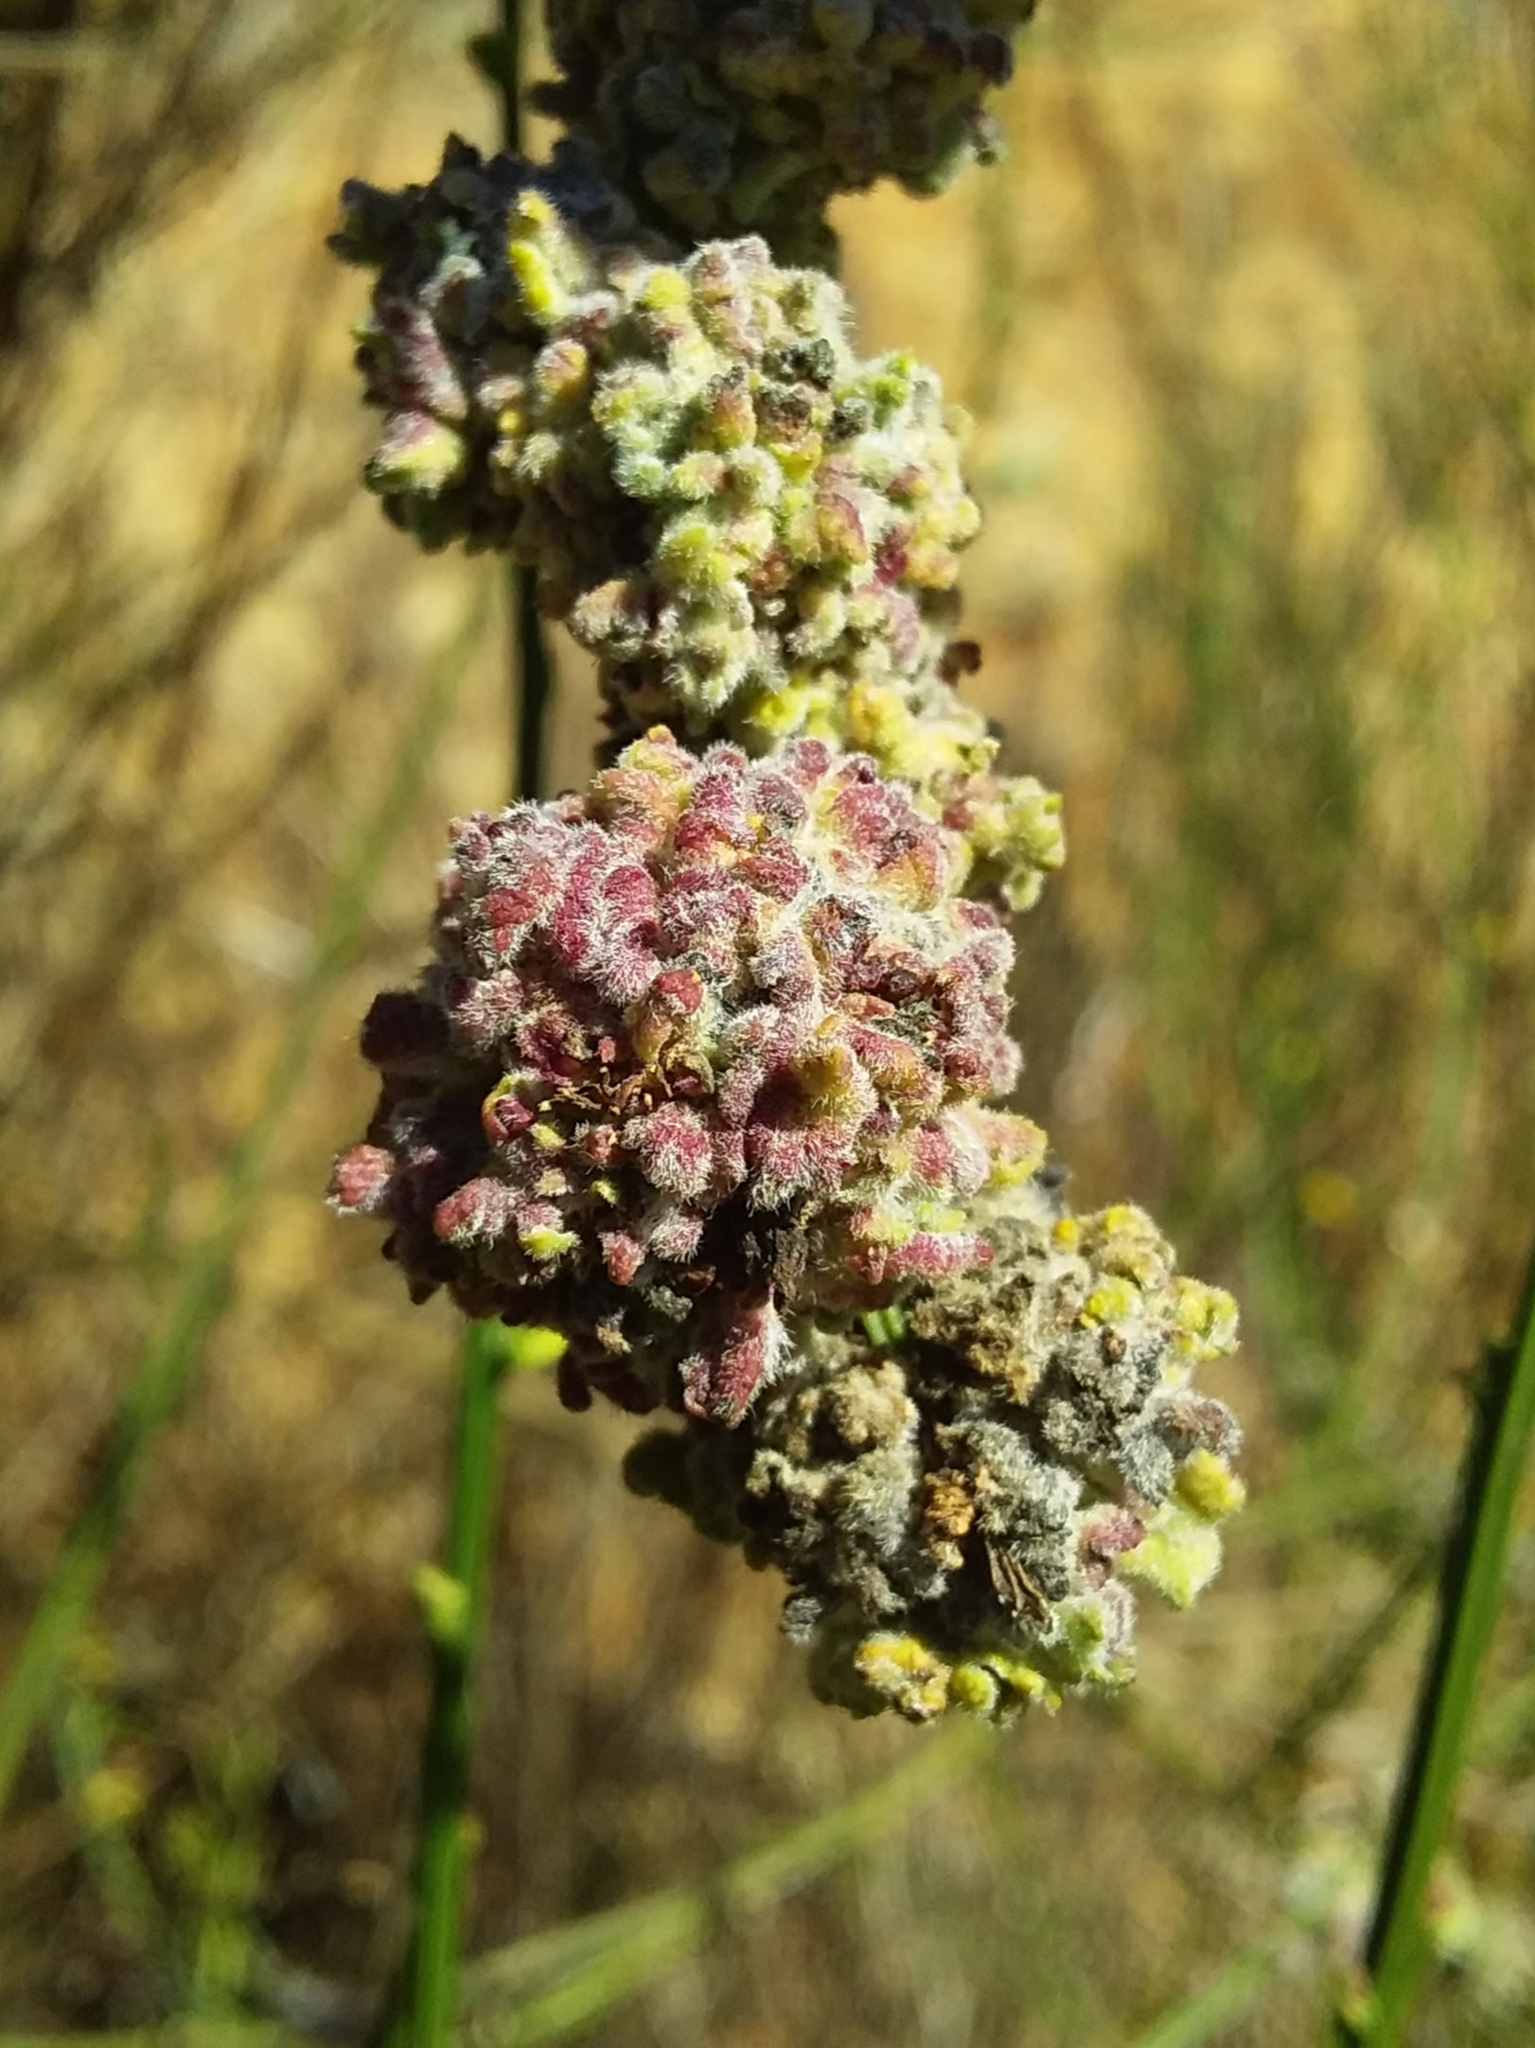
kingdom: Animalia
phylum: Arthropoda
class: Arachnida
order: Trombidiformes
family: Eriophyidae
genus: Aceria
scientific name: Aceria genistae
